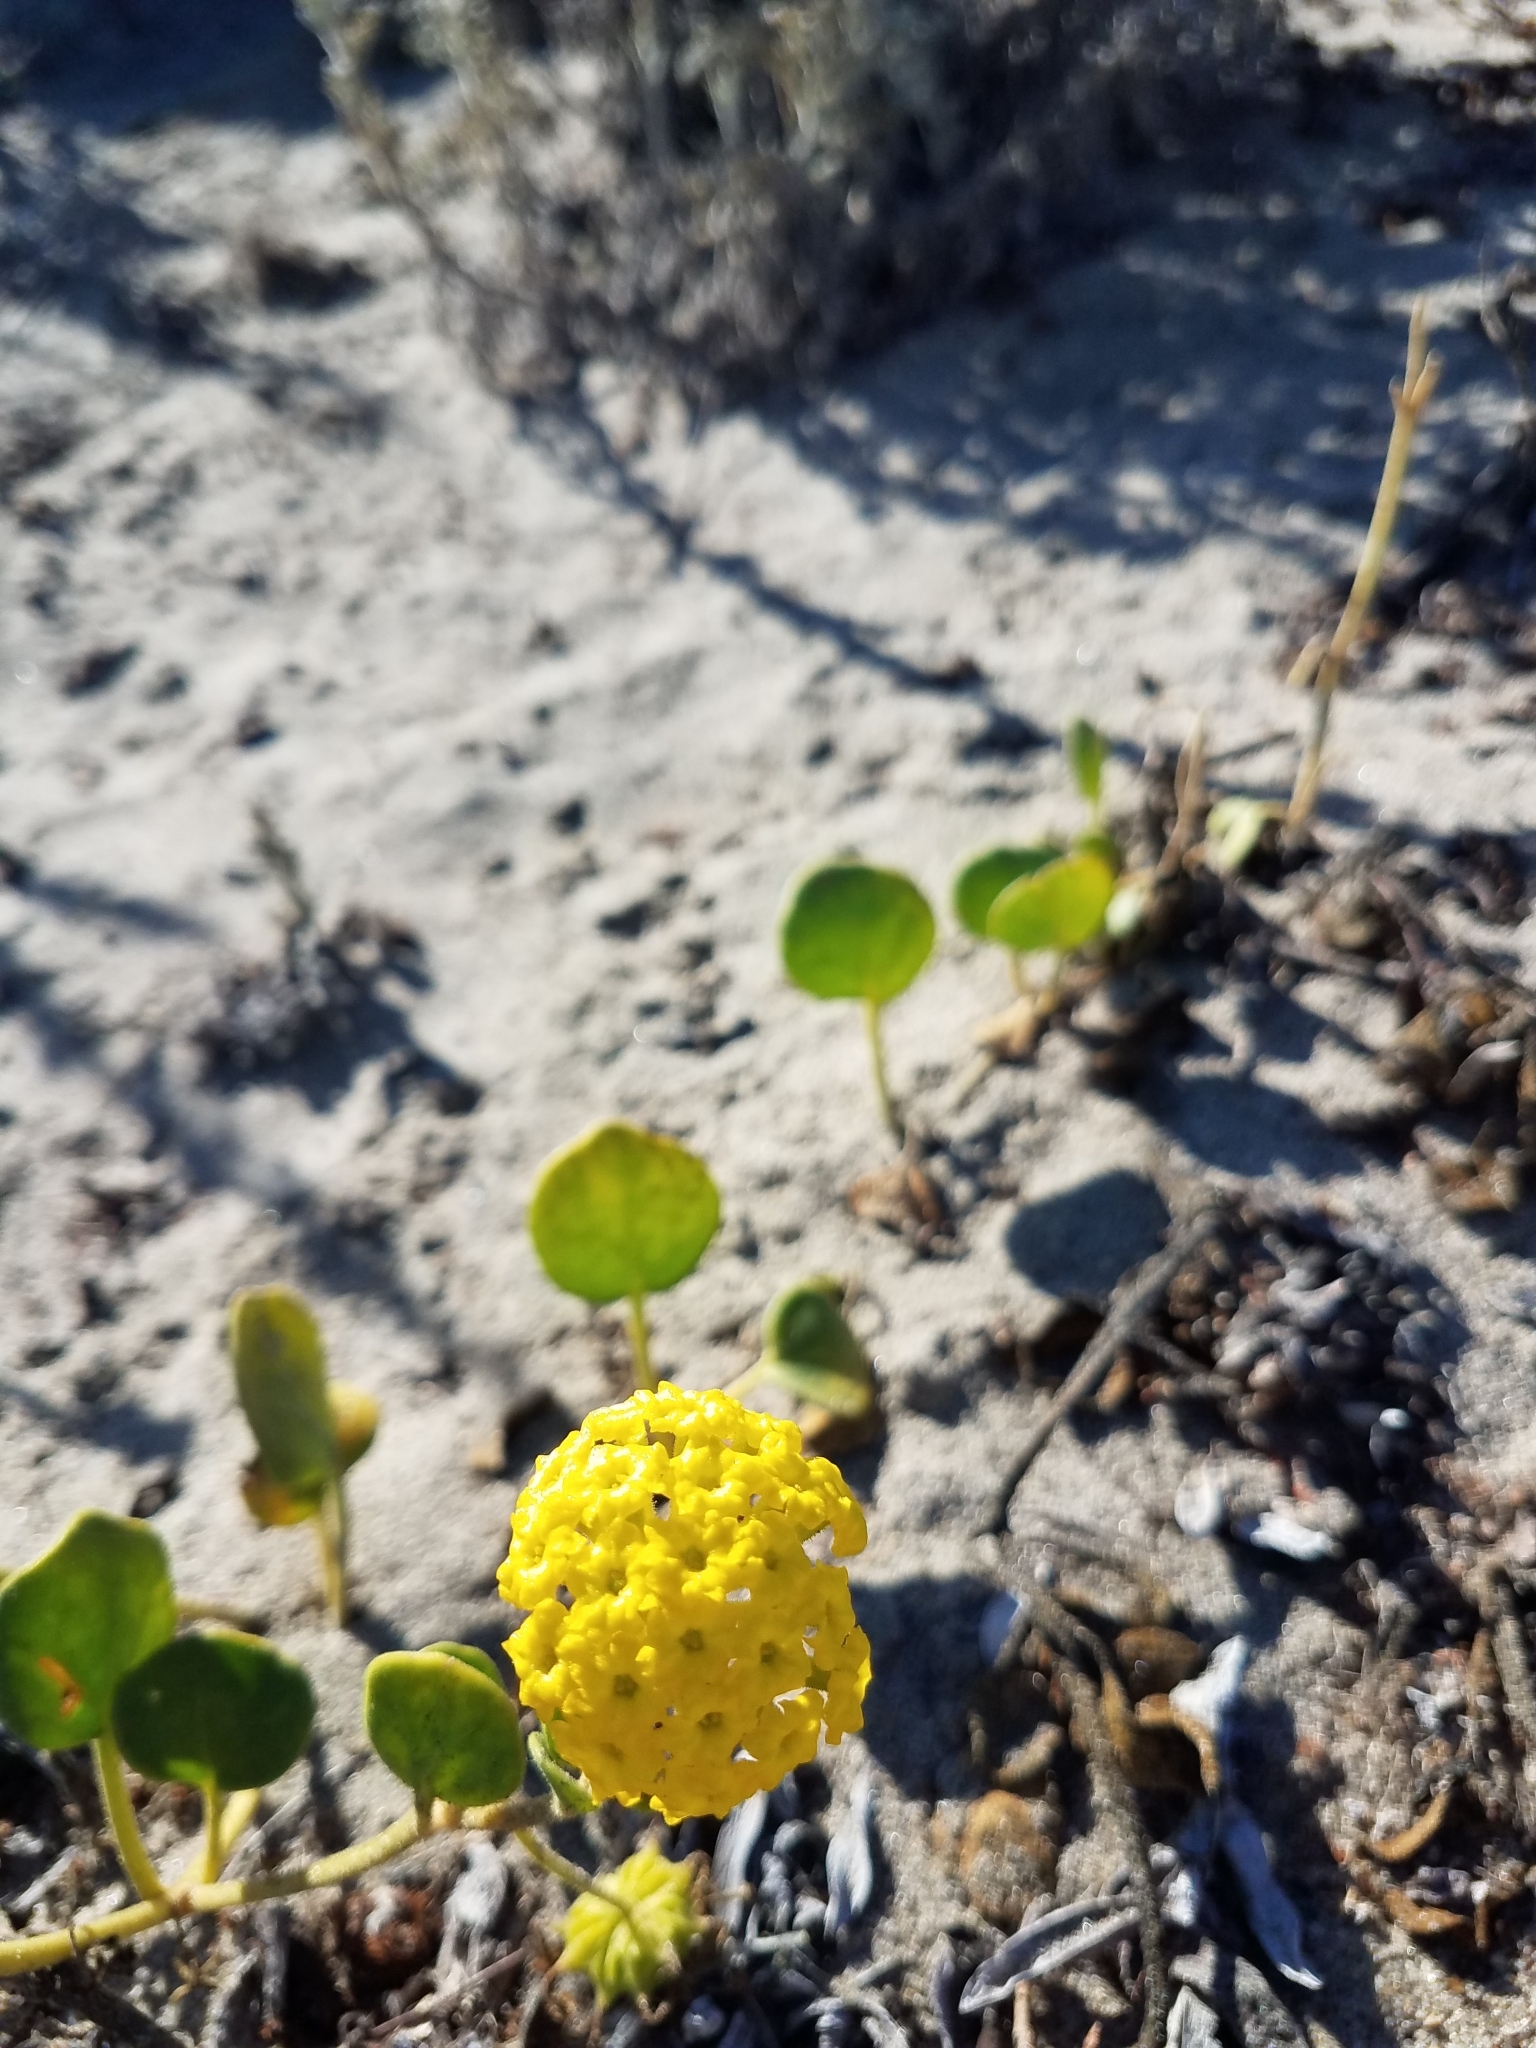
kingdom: Plantae
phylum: Tracheophyta
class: Magnoliopsida
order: Caryophyllales
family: Nyctaginaceae
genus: Abronia
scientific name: Abronia latifolia
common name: Yellow sand-verbena
